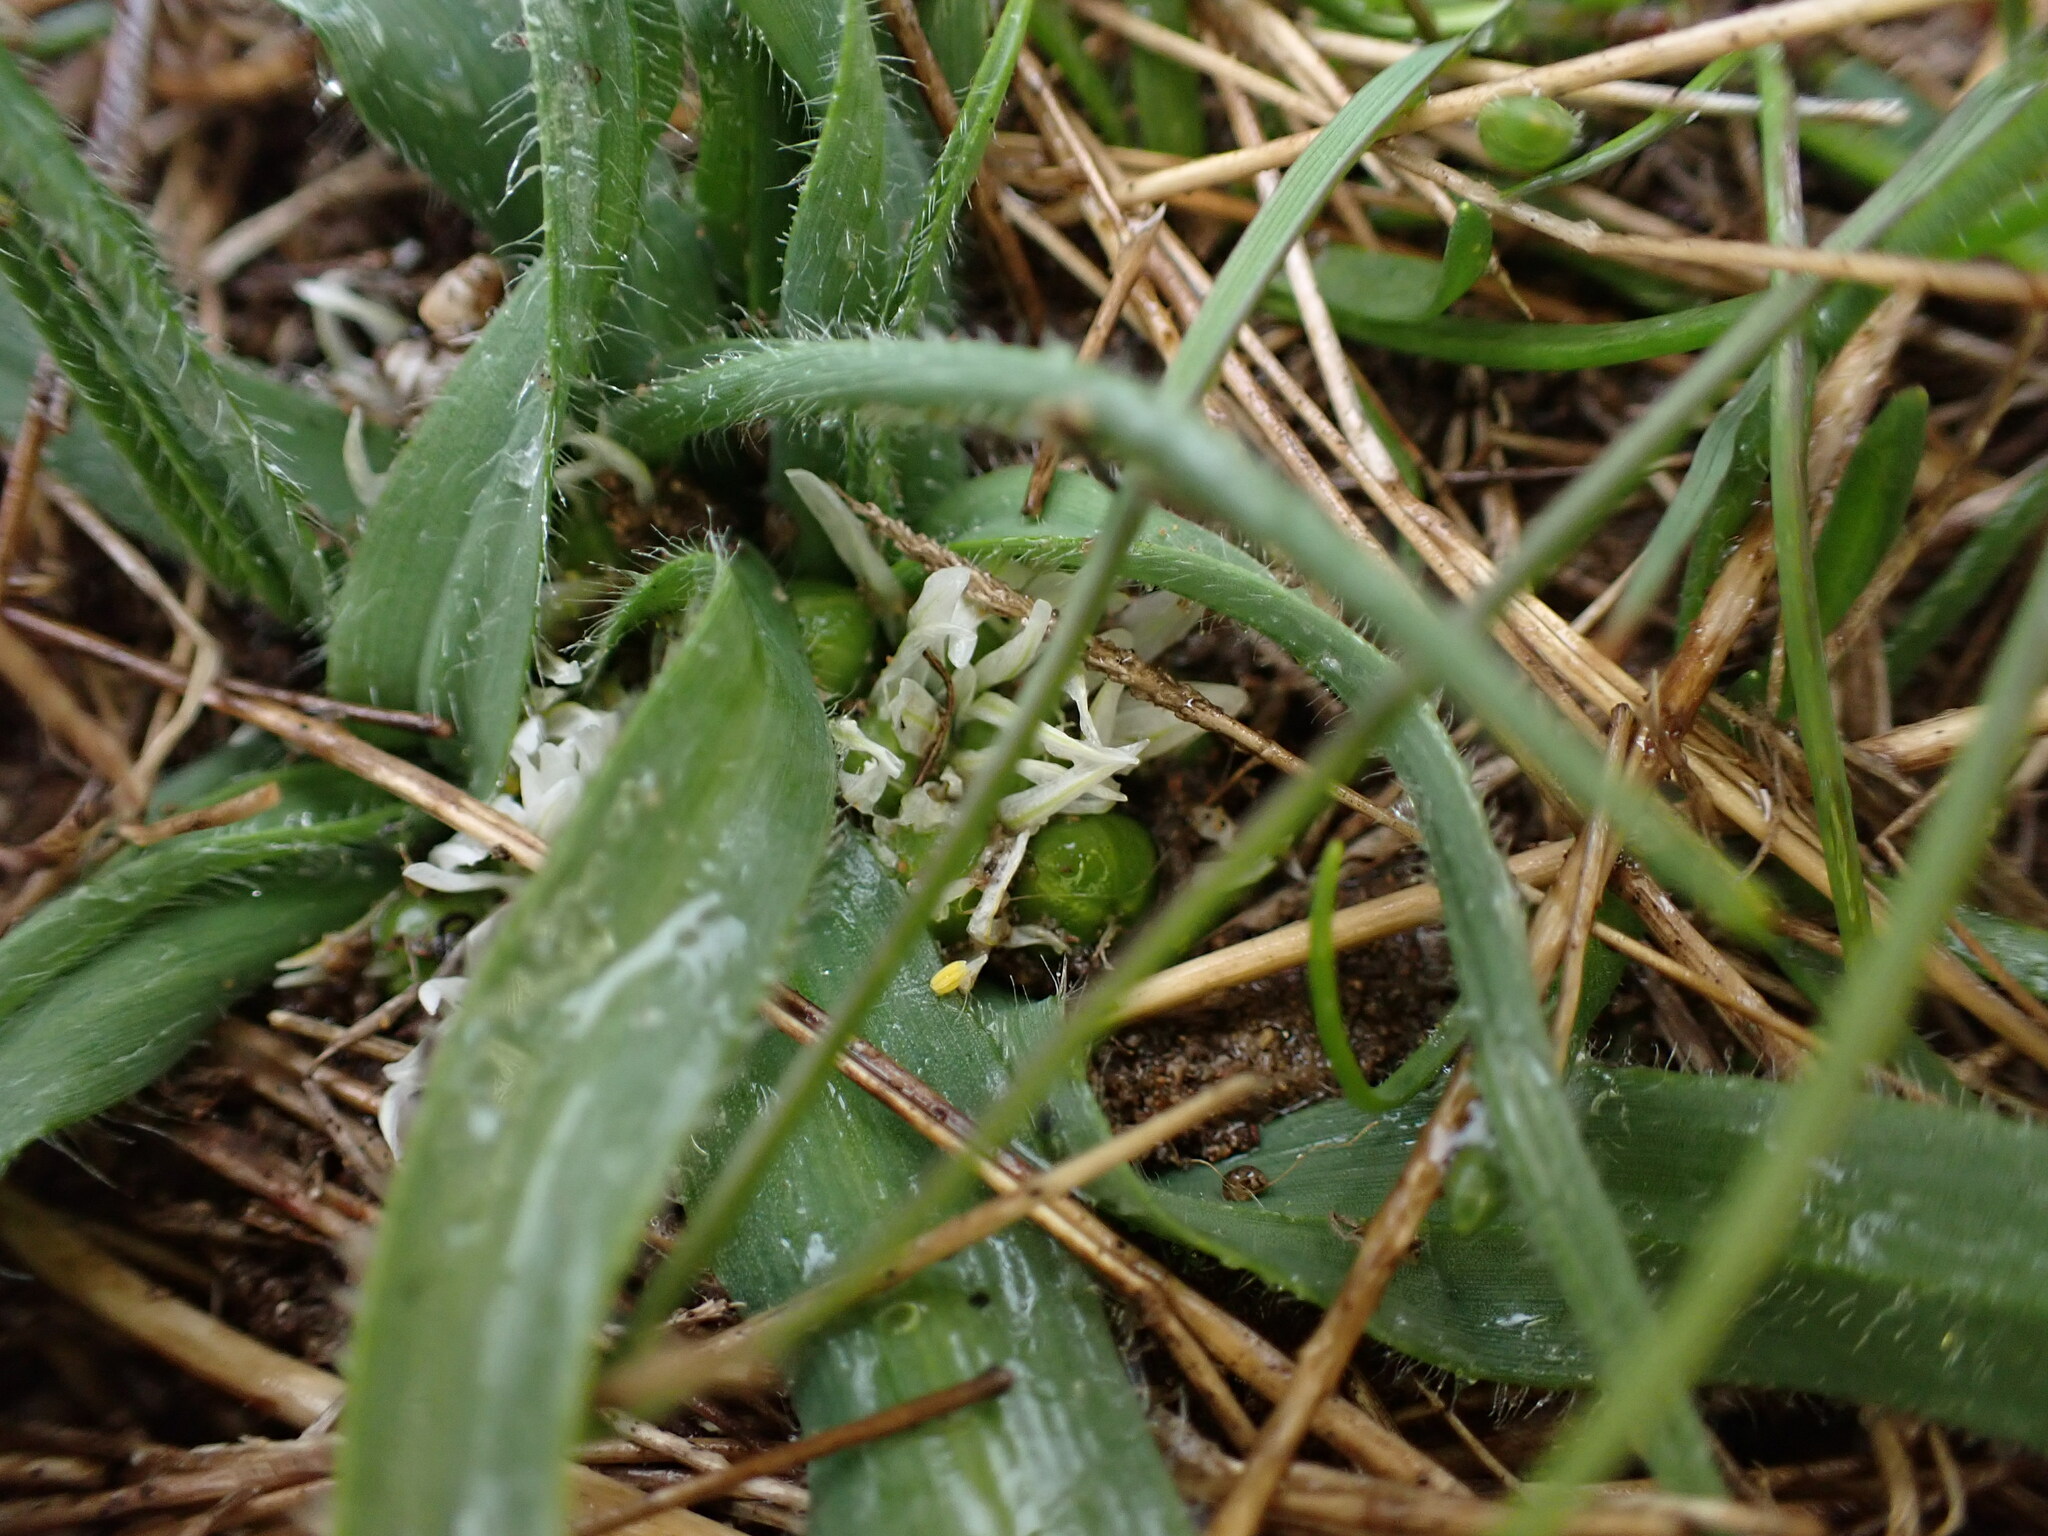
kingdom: Plantae
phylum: Tracheophyta
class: Liliopsida
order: Asparagales
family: Amaryllidaceae
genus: Allium
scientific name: Allium chamaemoly
